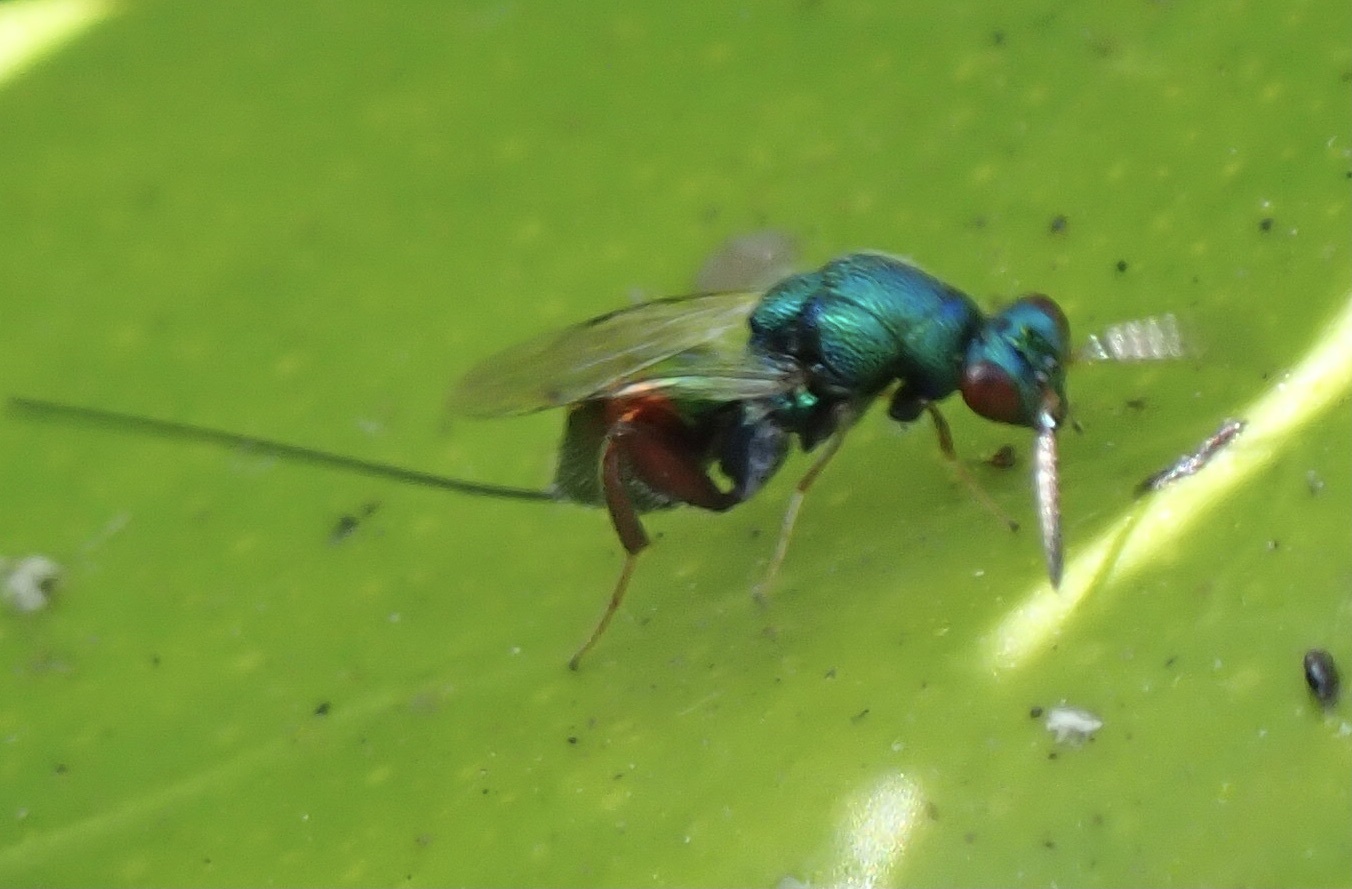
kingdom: Animalia
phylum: Arthropoda
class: Insecta
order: Hymenoptera
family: Torymidae
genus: Torymus
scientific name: Torymus calcaratus
